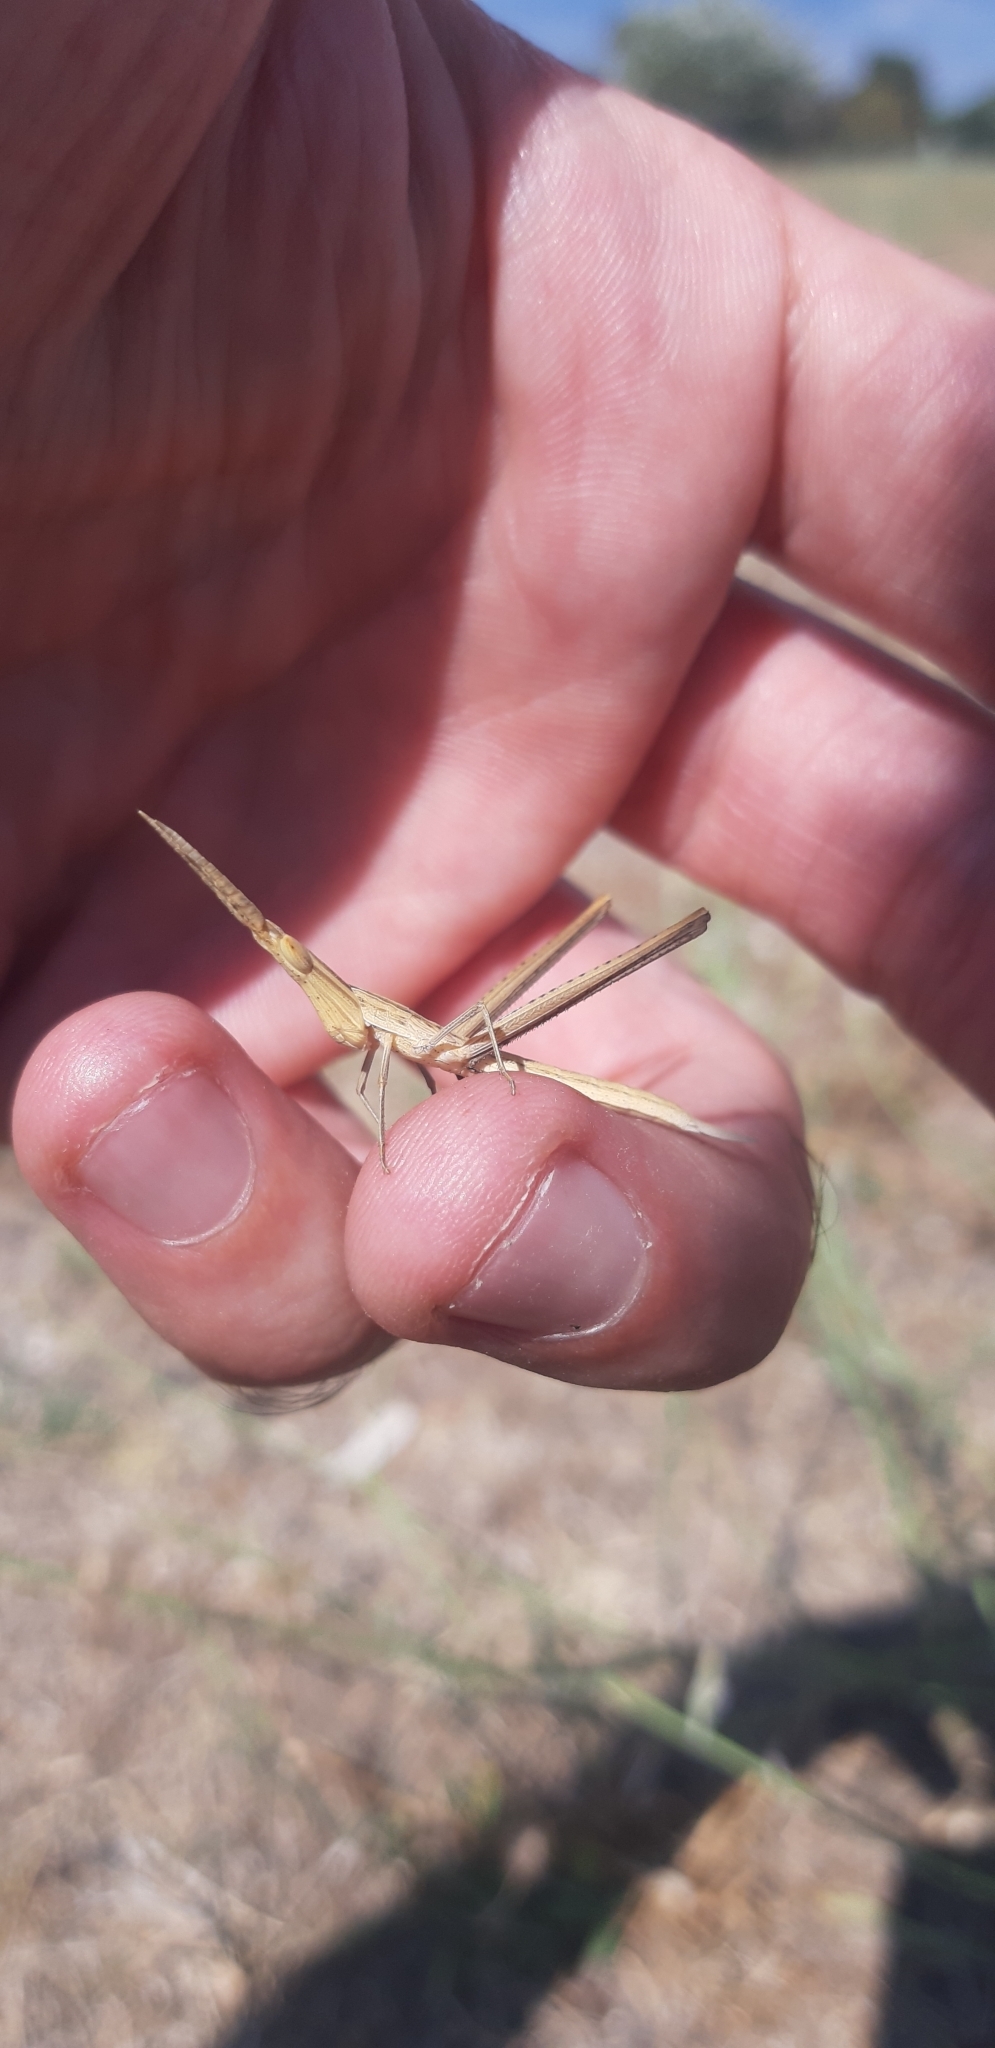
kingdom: Animalia
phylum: Arthropoda
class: Insecta
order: Orthoptera
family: Acrididae
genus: Acrida
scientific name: Acrida ungarica
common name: Common cone-headed grasshopper
